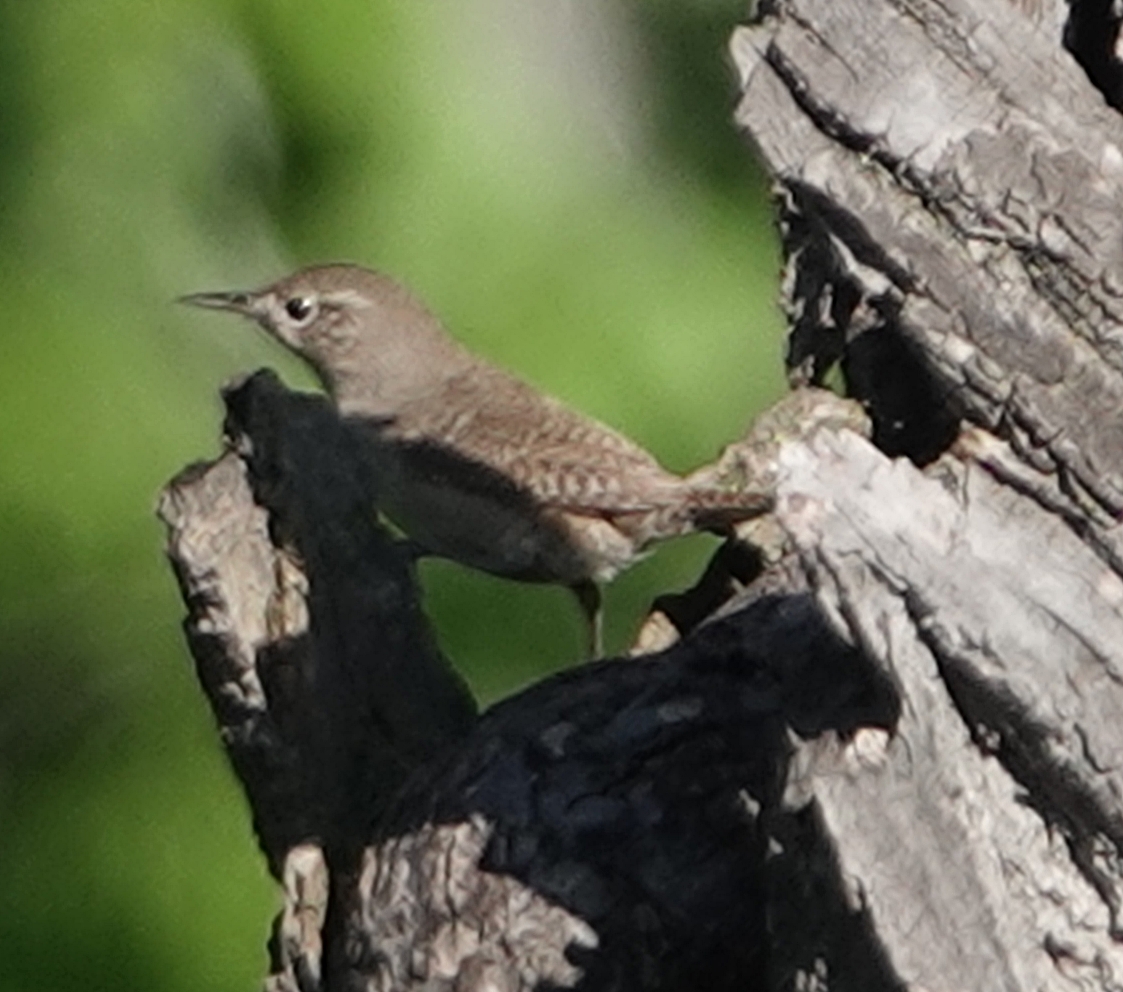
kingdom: Animalia
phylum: Chordata
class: Aves
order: Passeriformes
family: Troglodytidae
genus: Troglodytes
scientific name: Troglodytes aedon
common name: House wren
